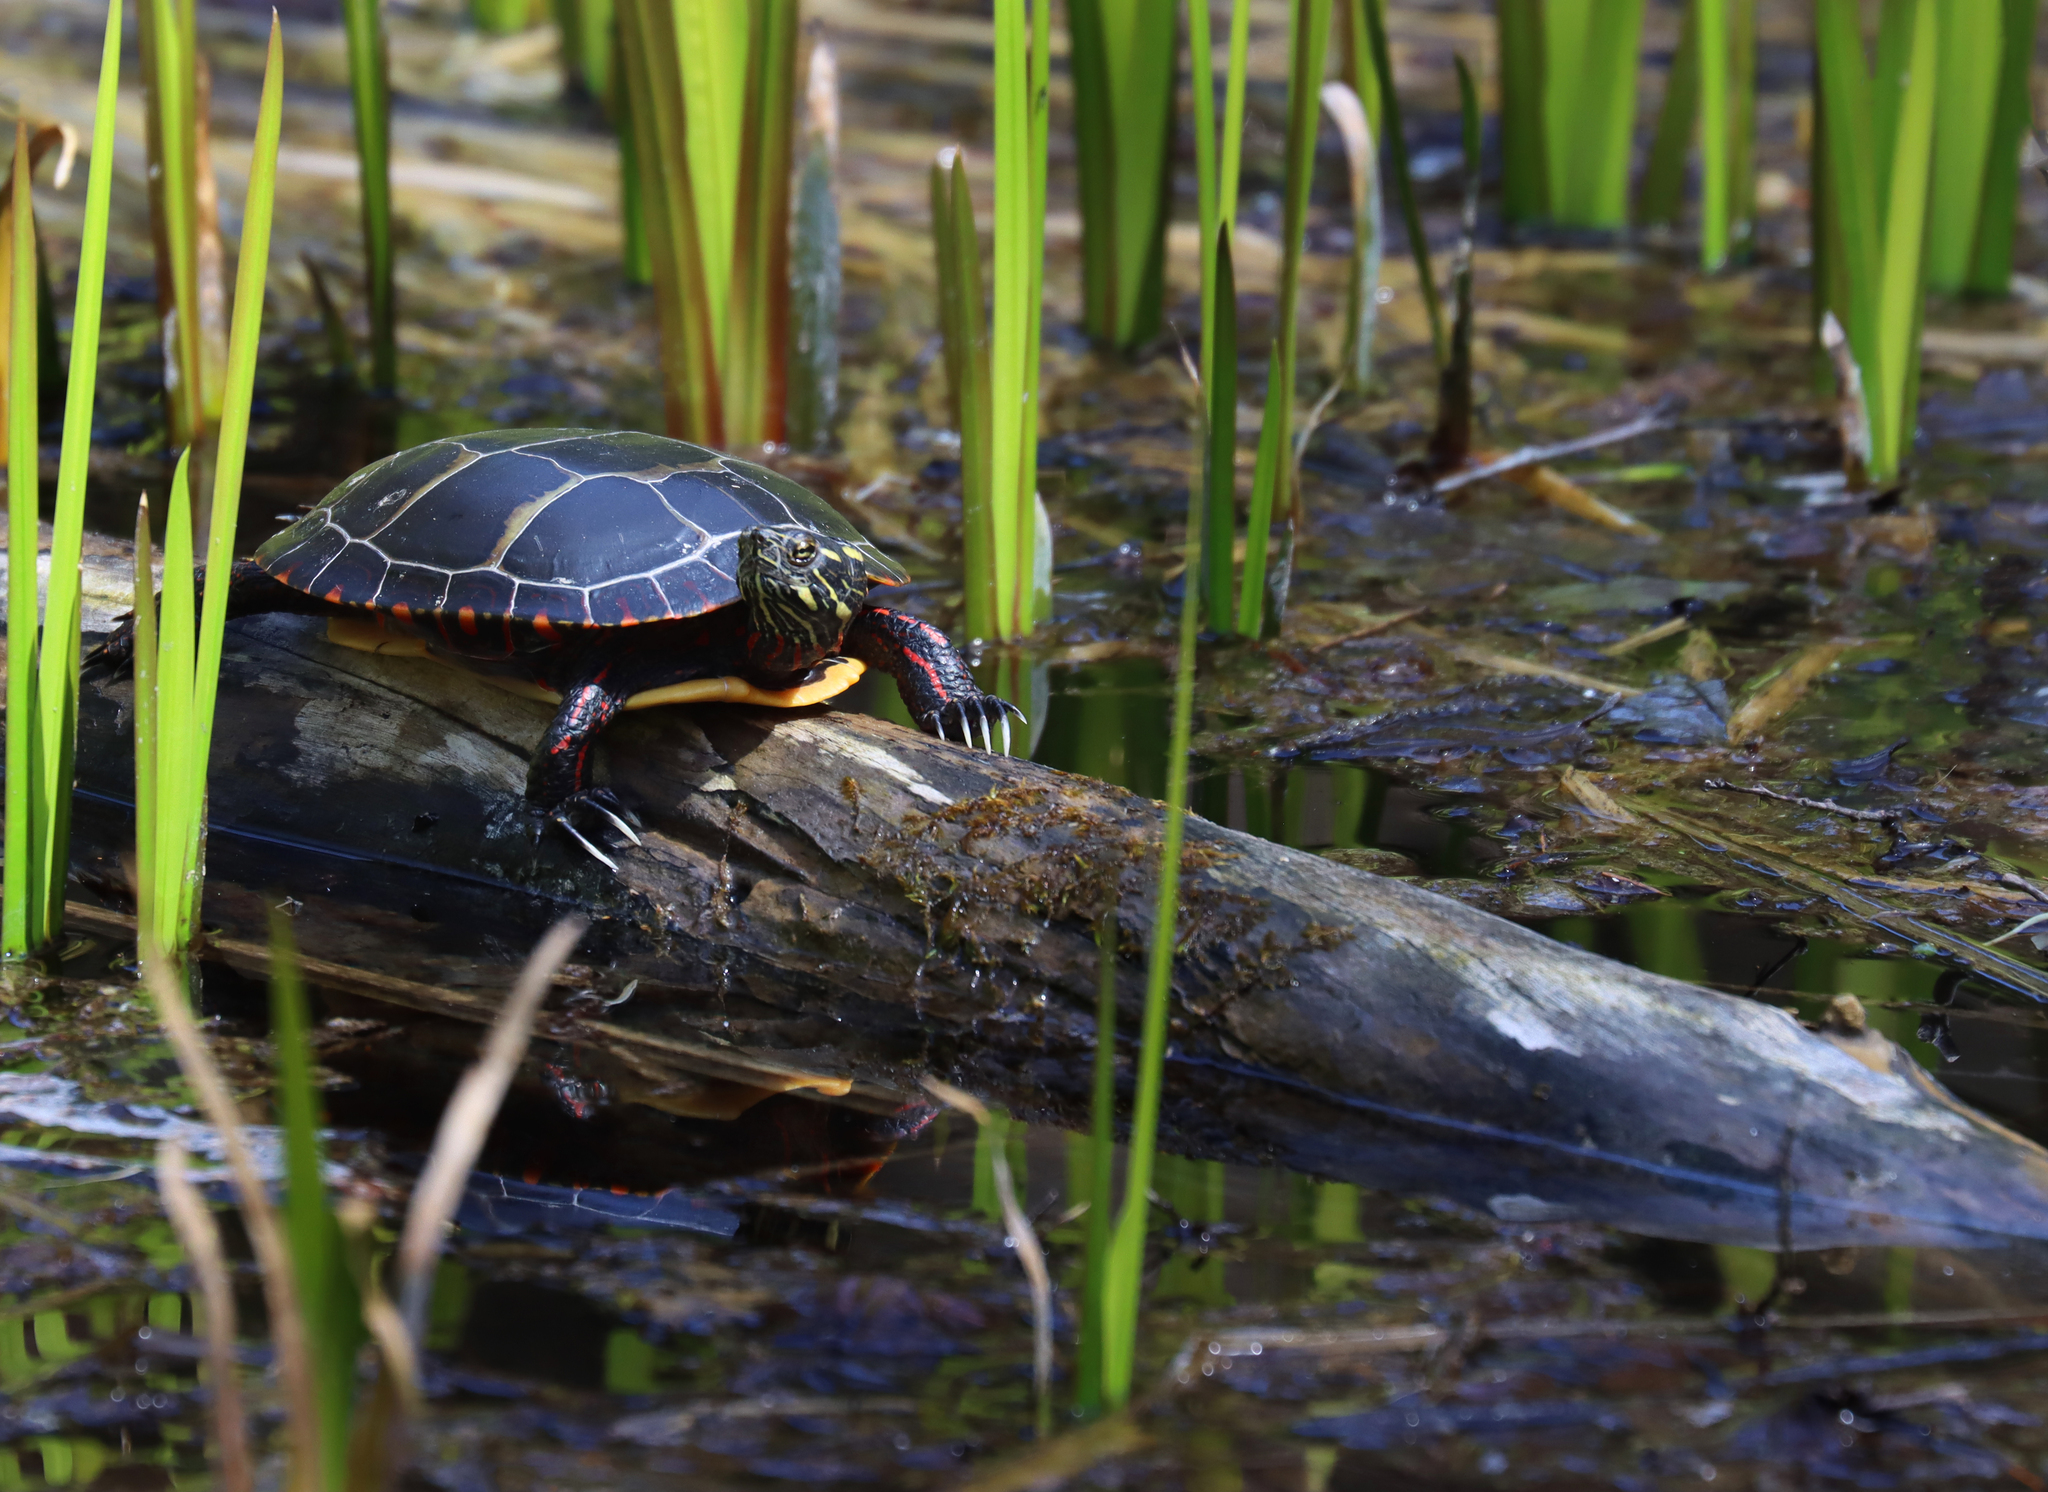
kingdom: Animalia
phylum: Chordata
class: Testudines
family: Emydidae
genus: Chrysemys
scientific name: Chrysemys picta
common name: Painted turtle
